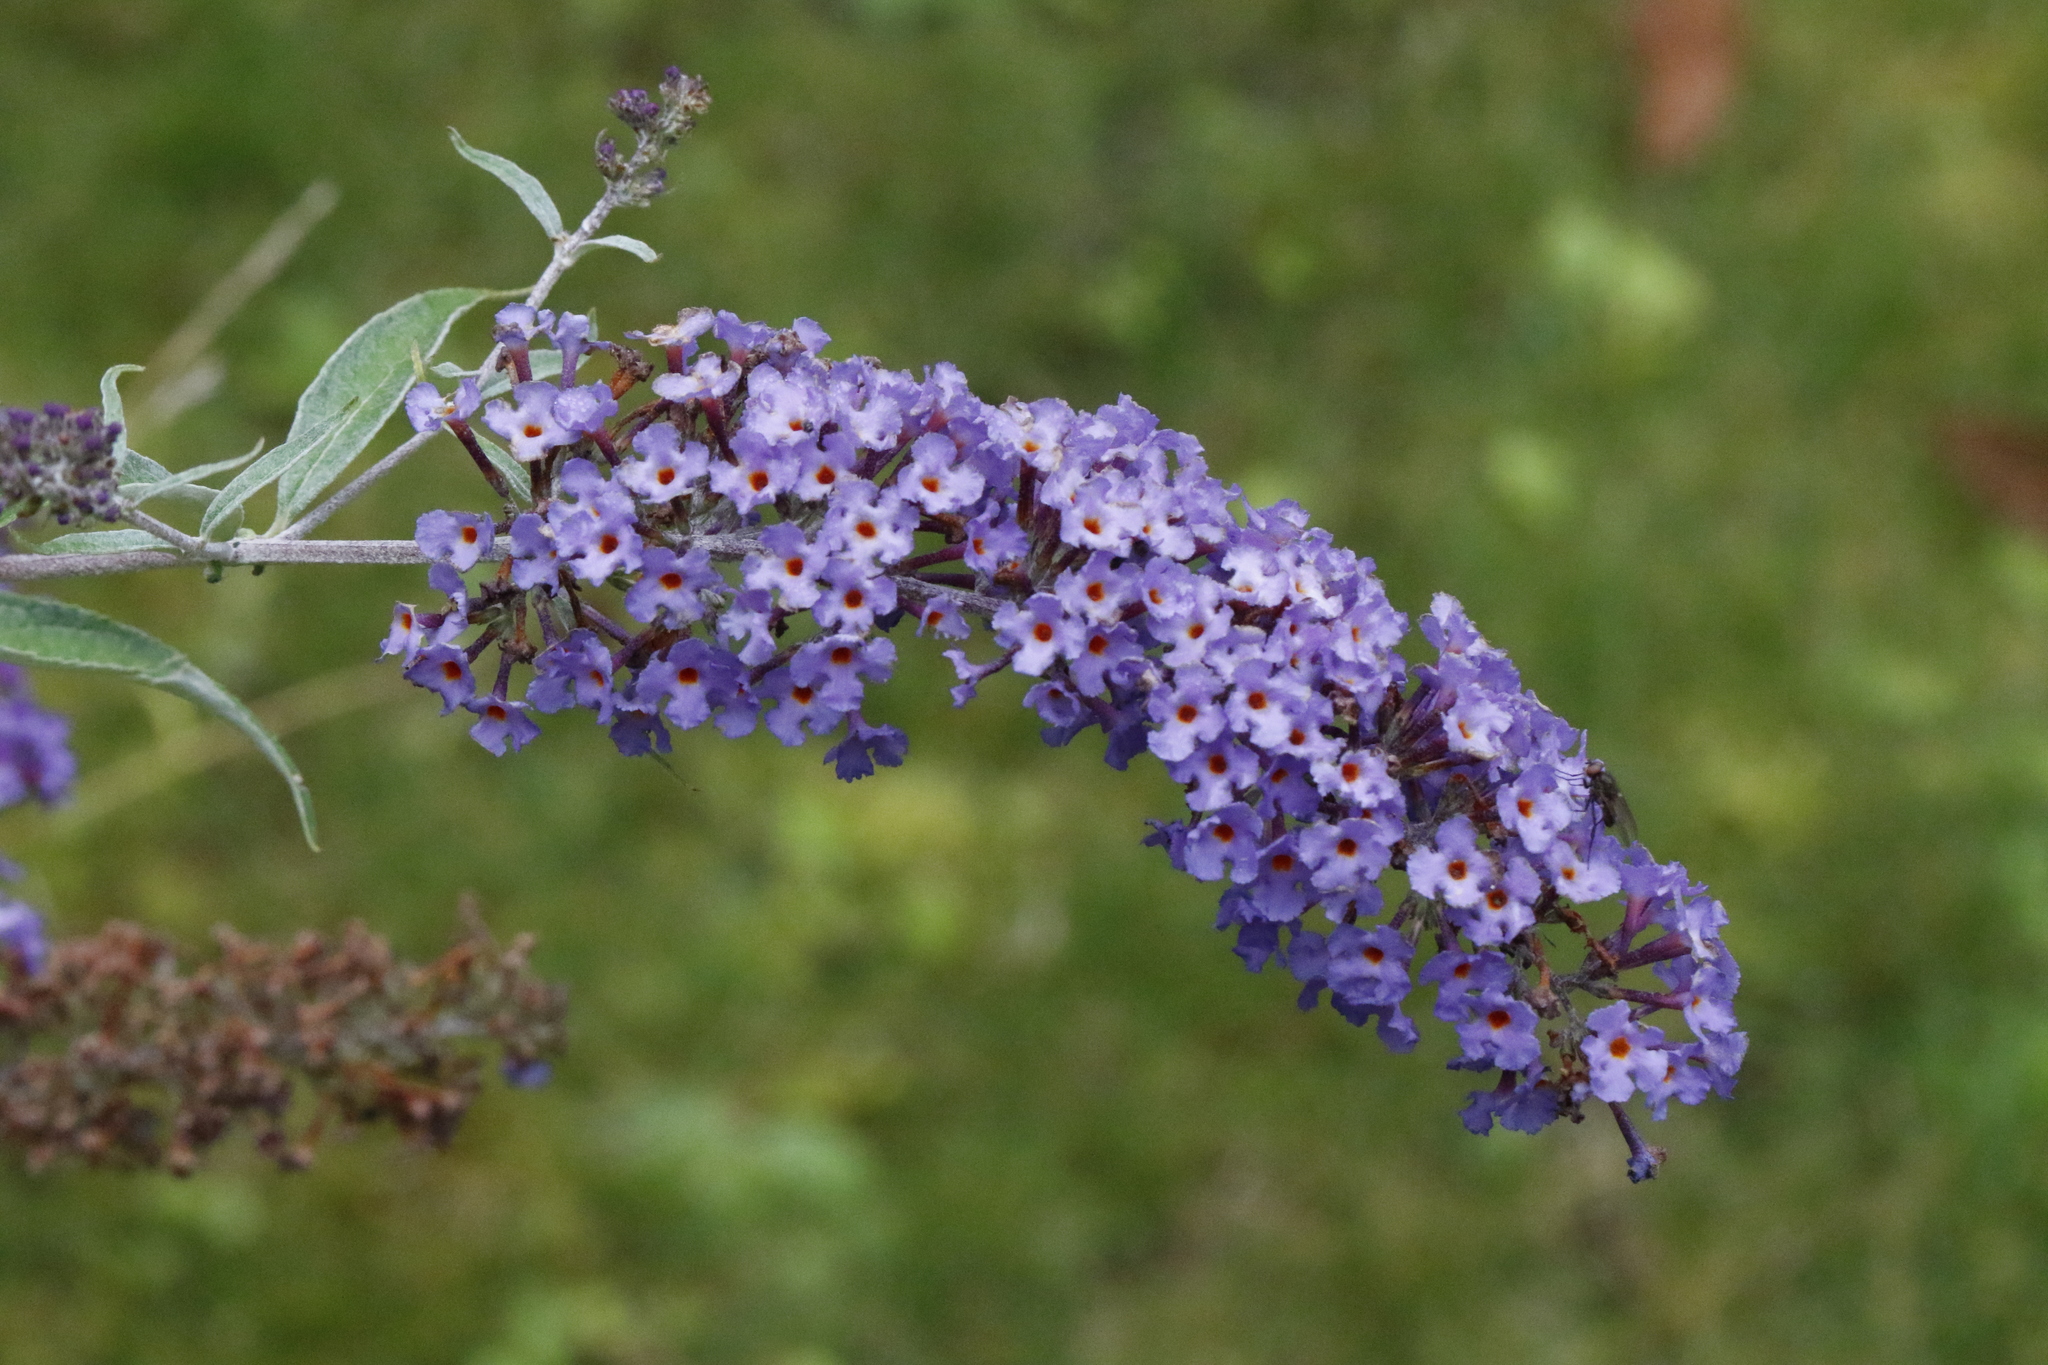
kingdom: Plantae
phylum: Tracheophyta
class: Magnoliopsida
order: Lamiales
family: Scrophulariaceae
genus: Buddleja
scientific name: Buddleja davidii
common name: Butterfly-bush
